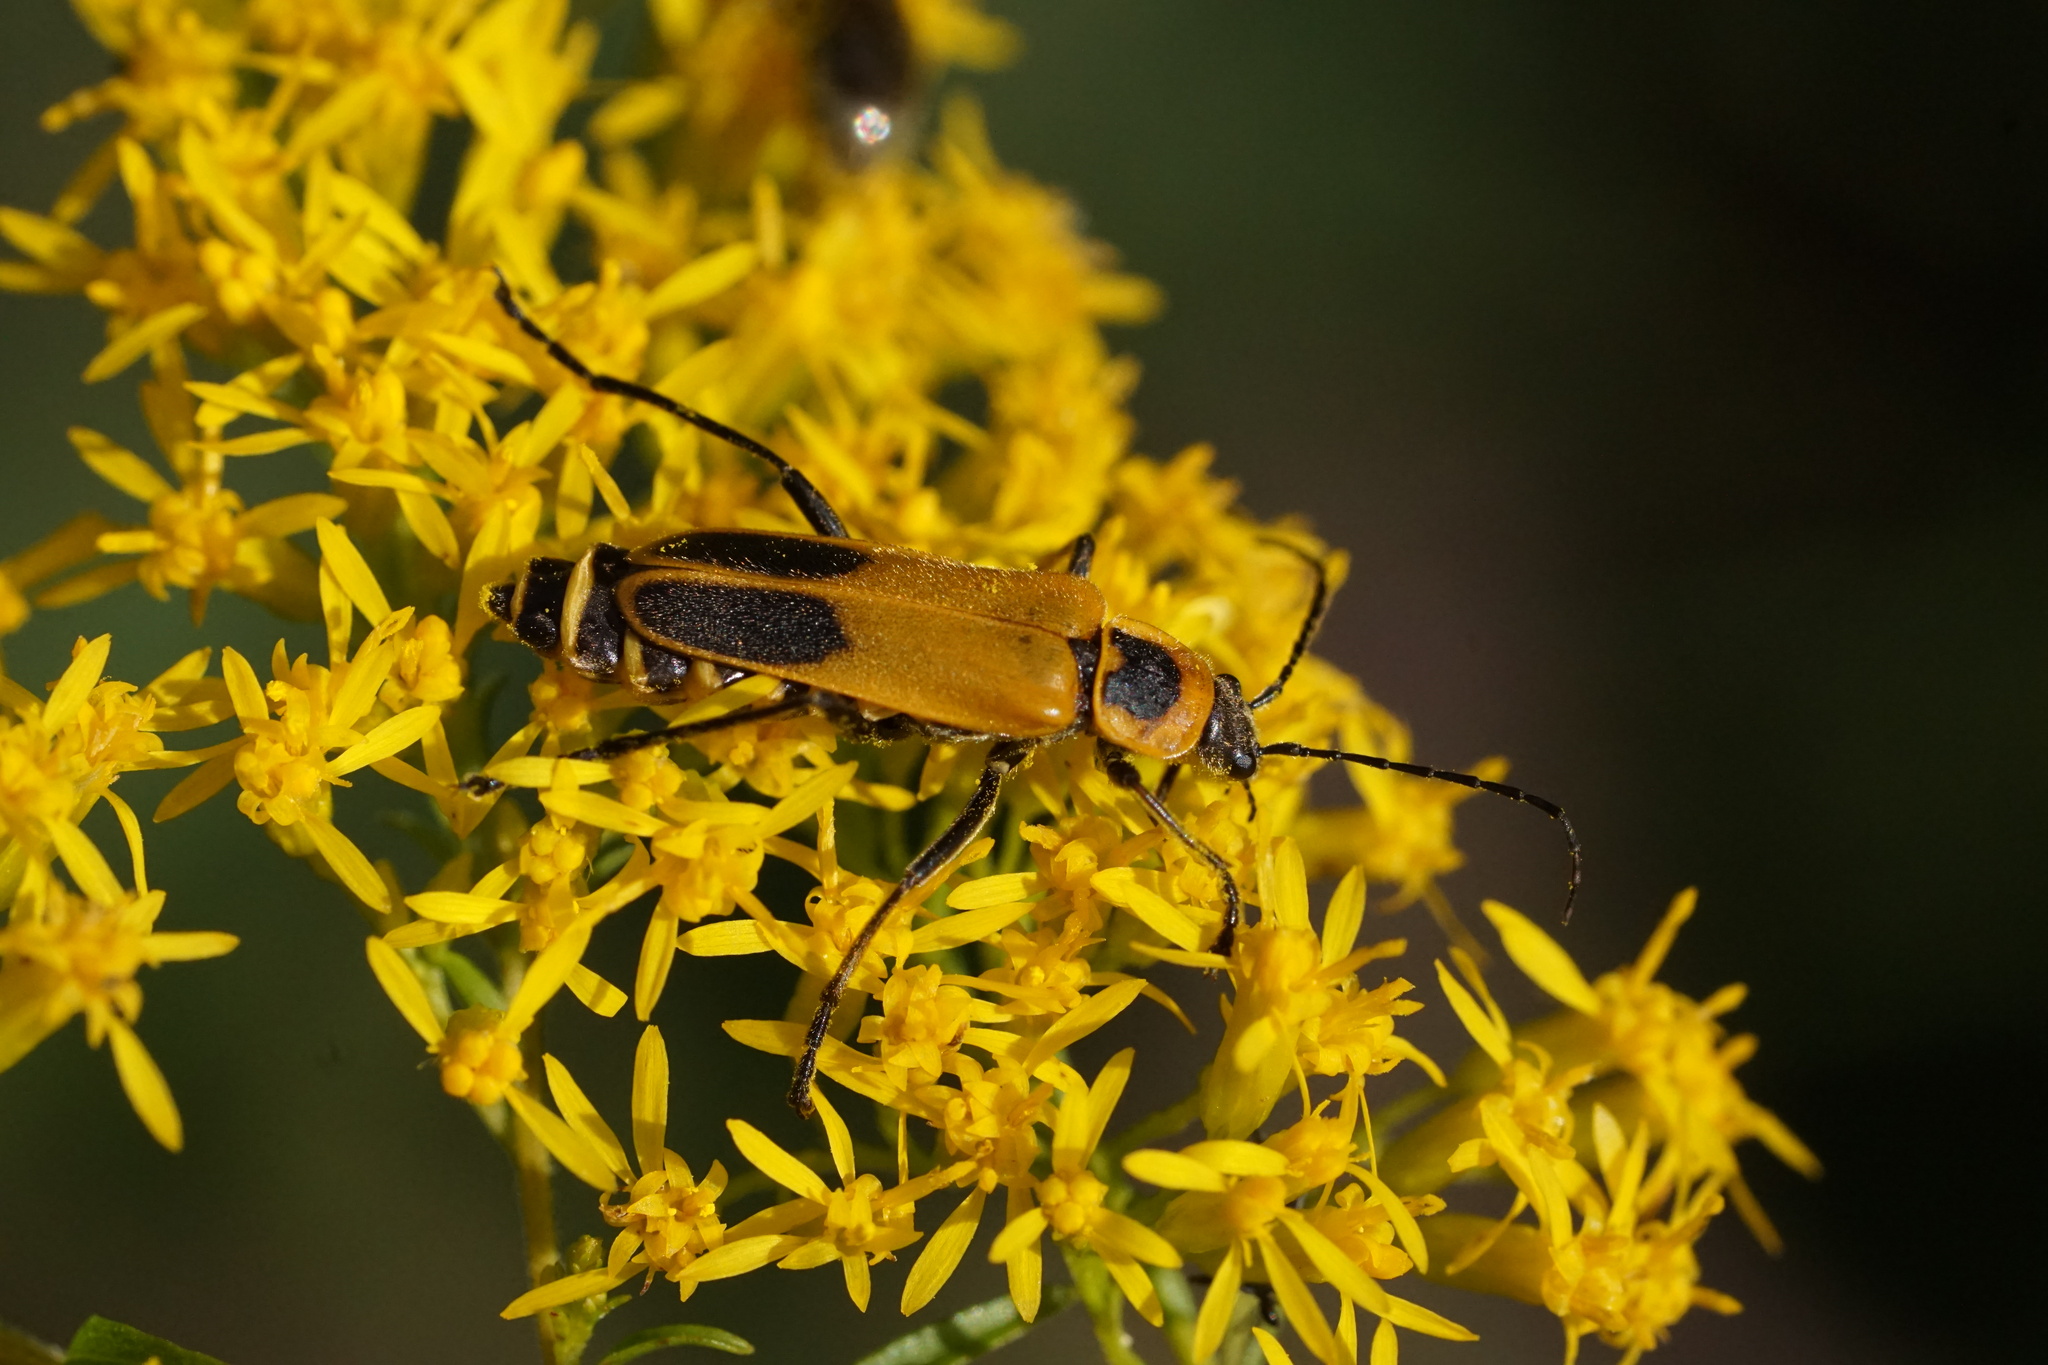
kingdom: Animalia
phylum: Arthropoda
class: Insecta
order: Coleoptera
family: Cantharidae
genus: Chauliognathus
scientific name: Chauliognathus pensylvanicus
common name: Goldenrod soldier beetle
